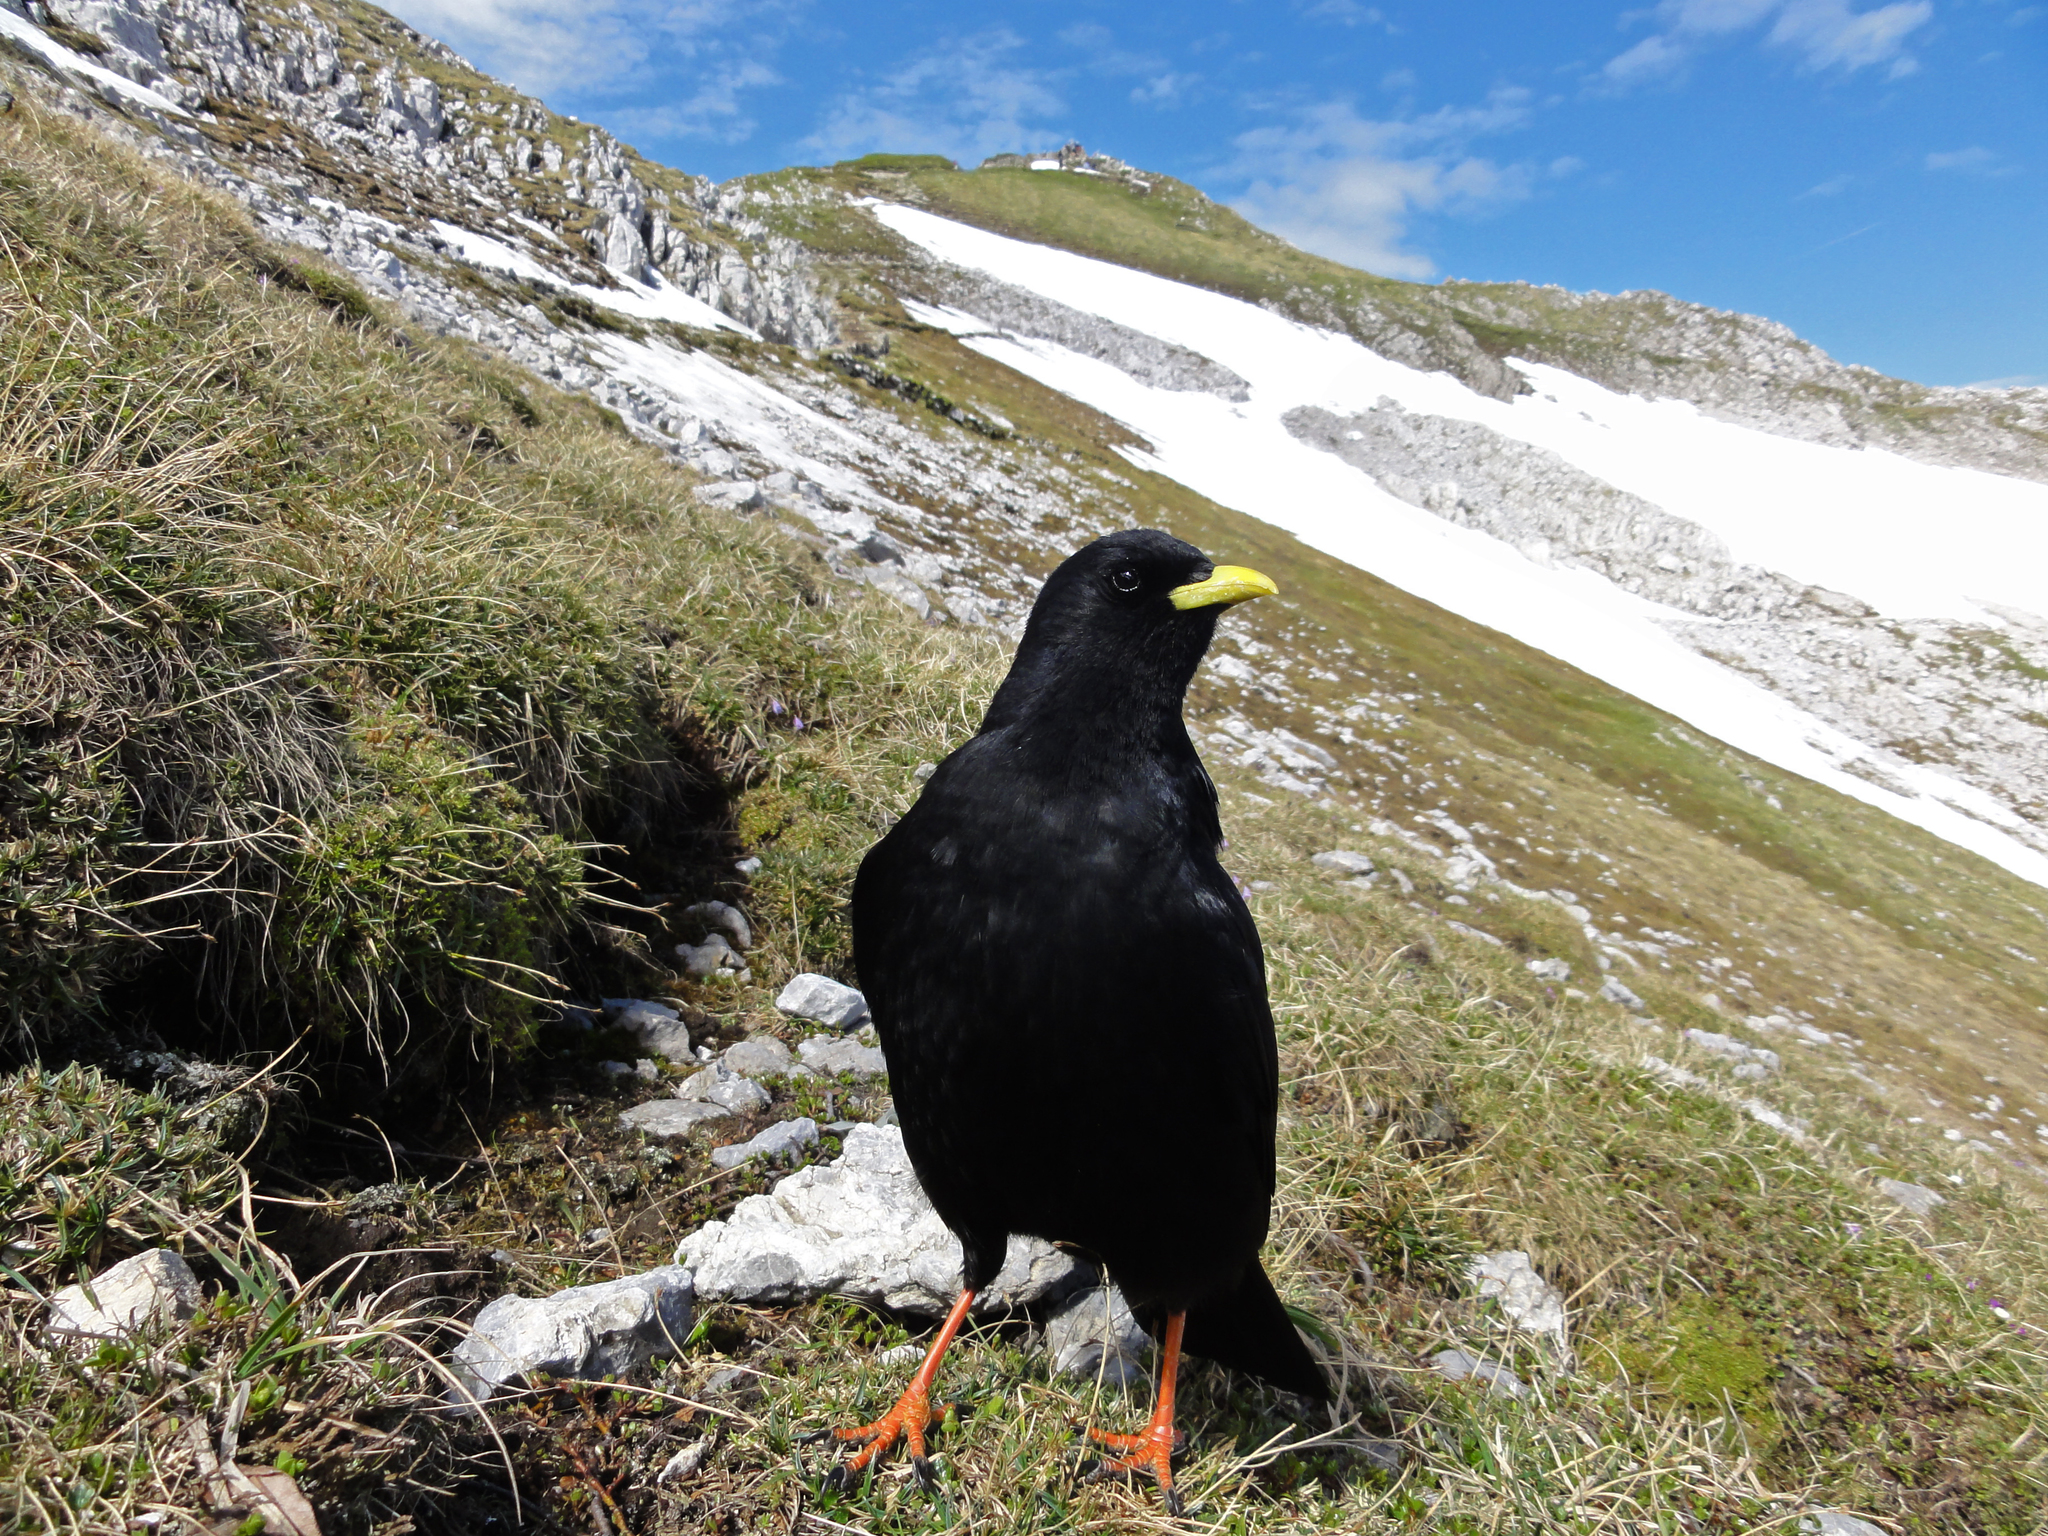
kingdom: Animalia
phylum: Chordata
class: Aves
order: Passeriformes
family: Corvidae
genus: Pyrrhocorax
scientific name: Pyrrhocorax graculus
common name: Alpine chough
